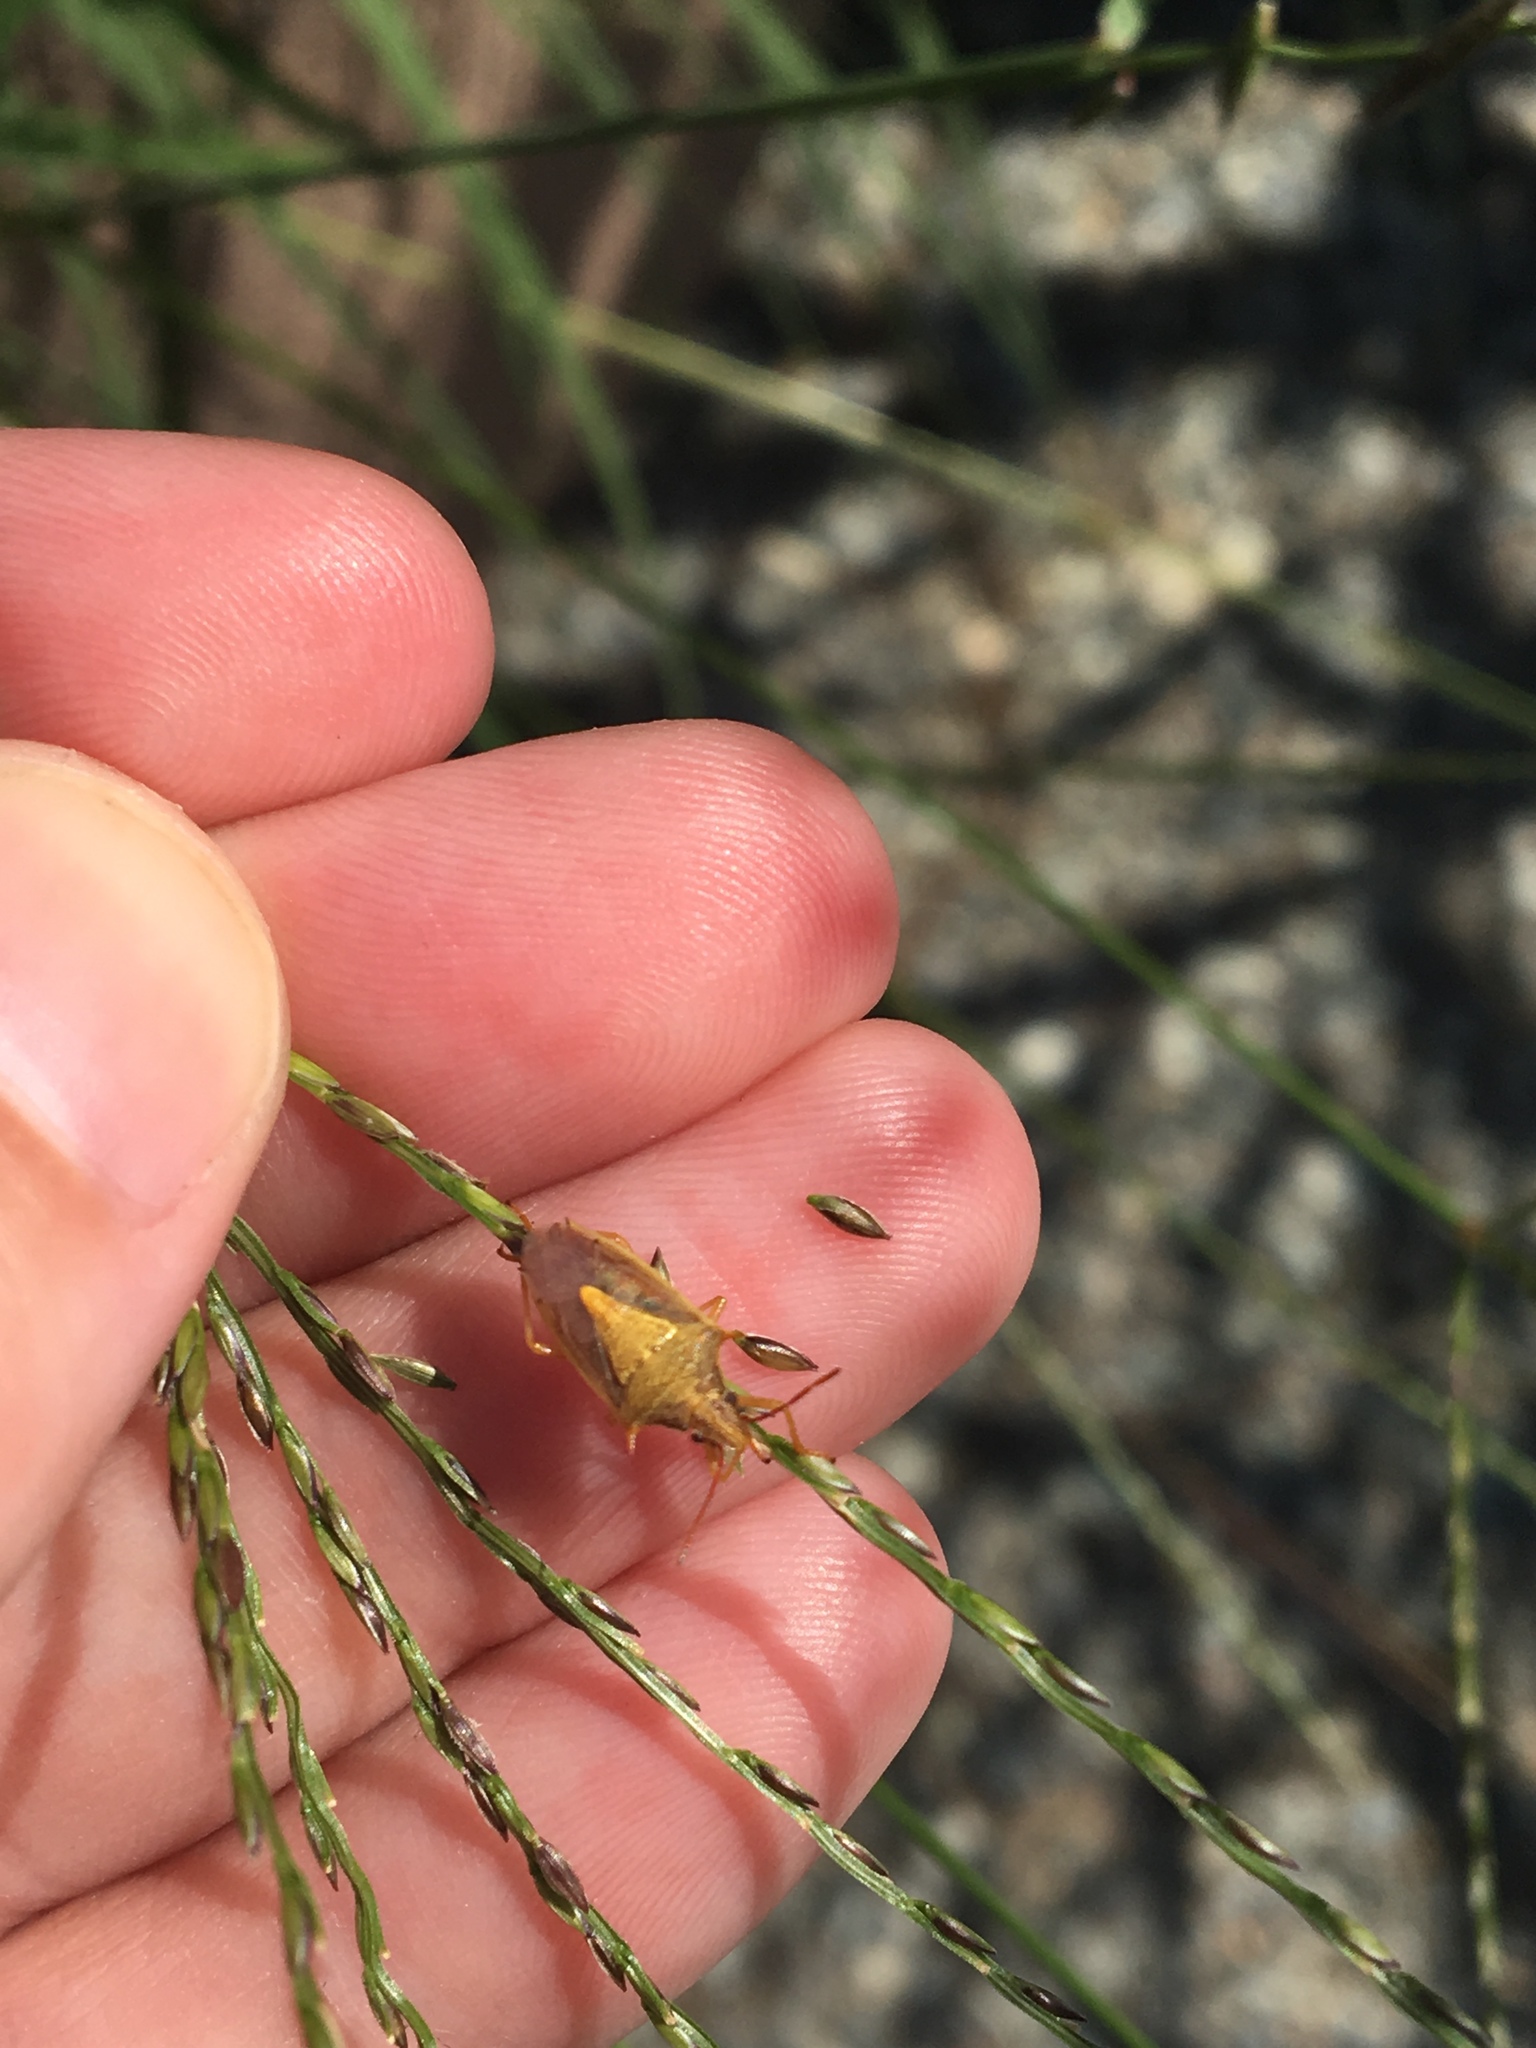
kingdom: Animalia
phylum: Arthropoda
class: Insecta
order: Hemiptera
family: Pentatomidae
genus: Oebalus
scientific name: Oebalus pugnax
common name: Rice stink bug
